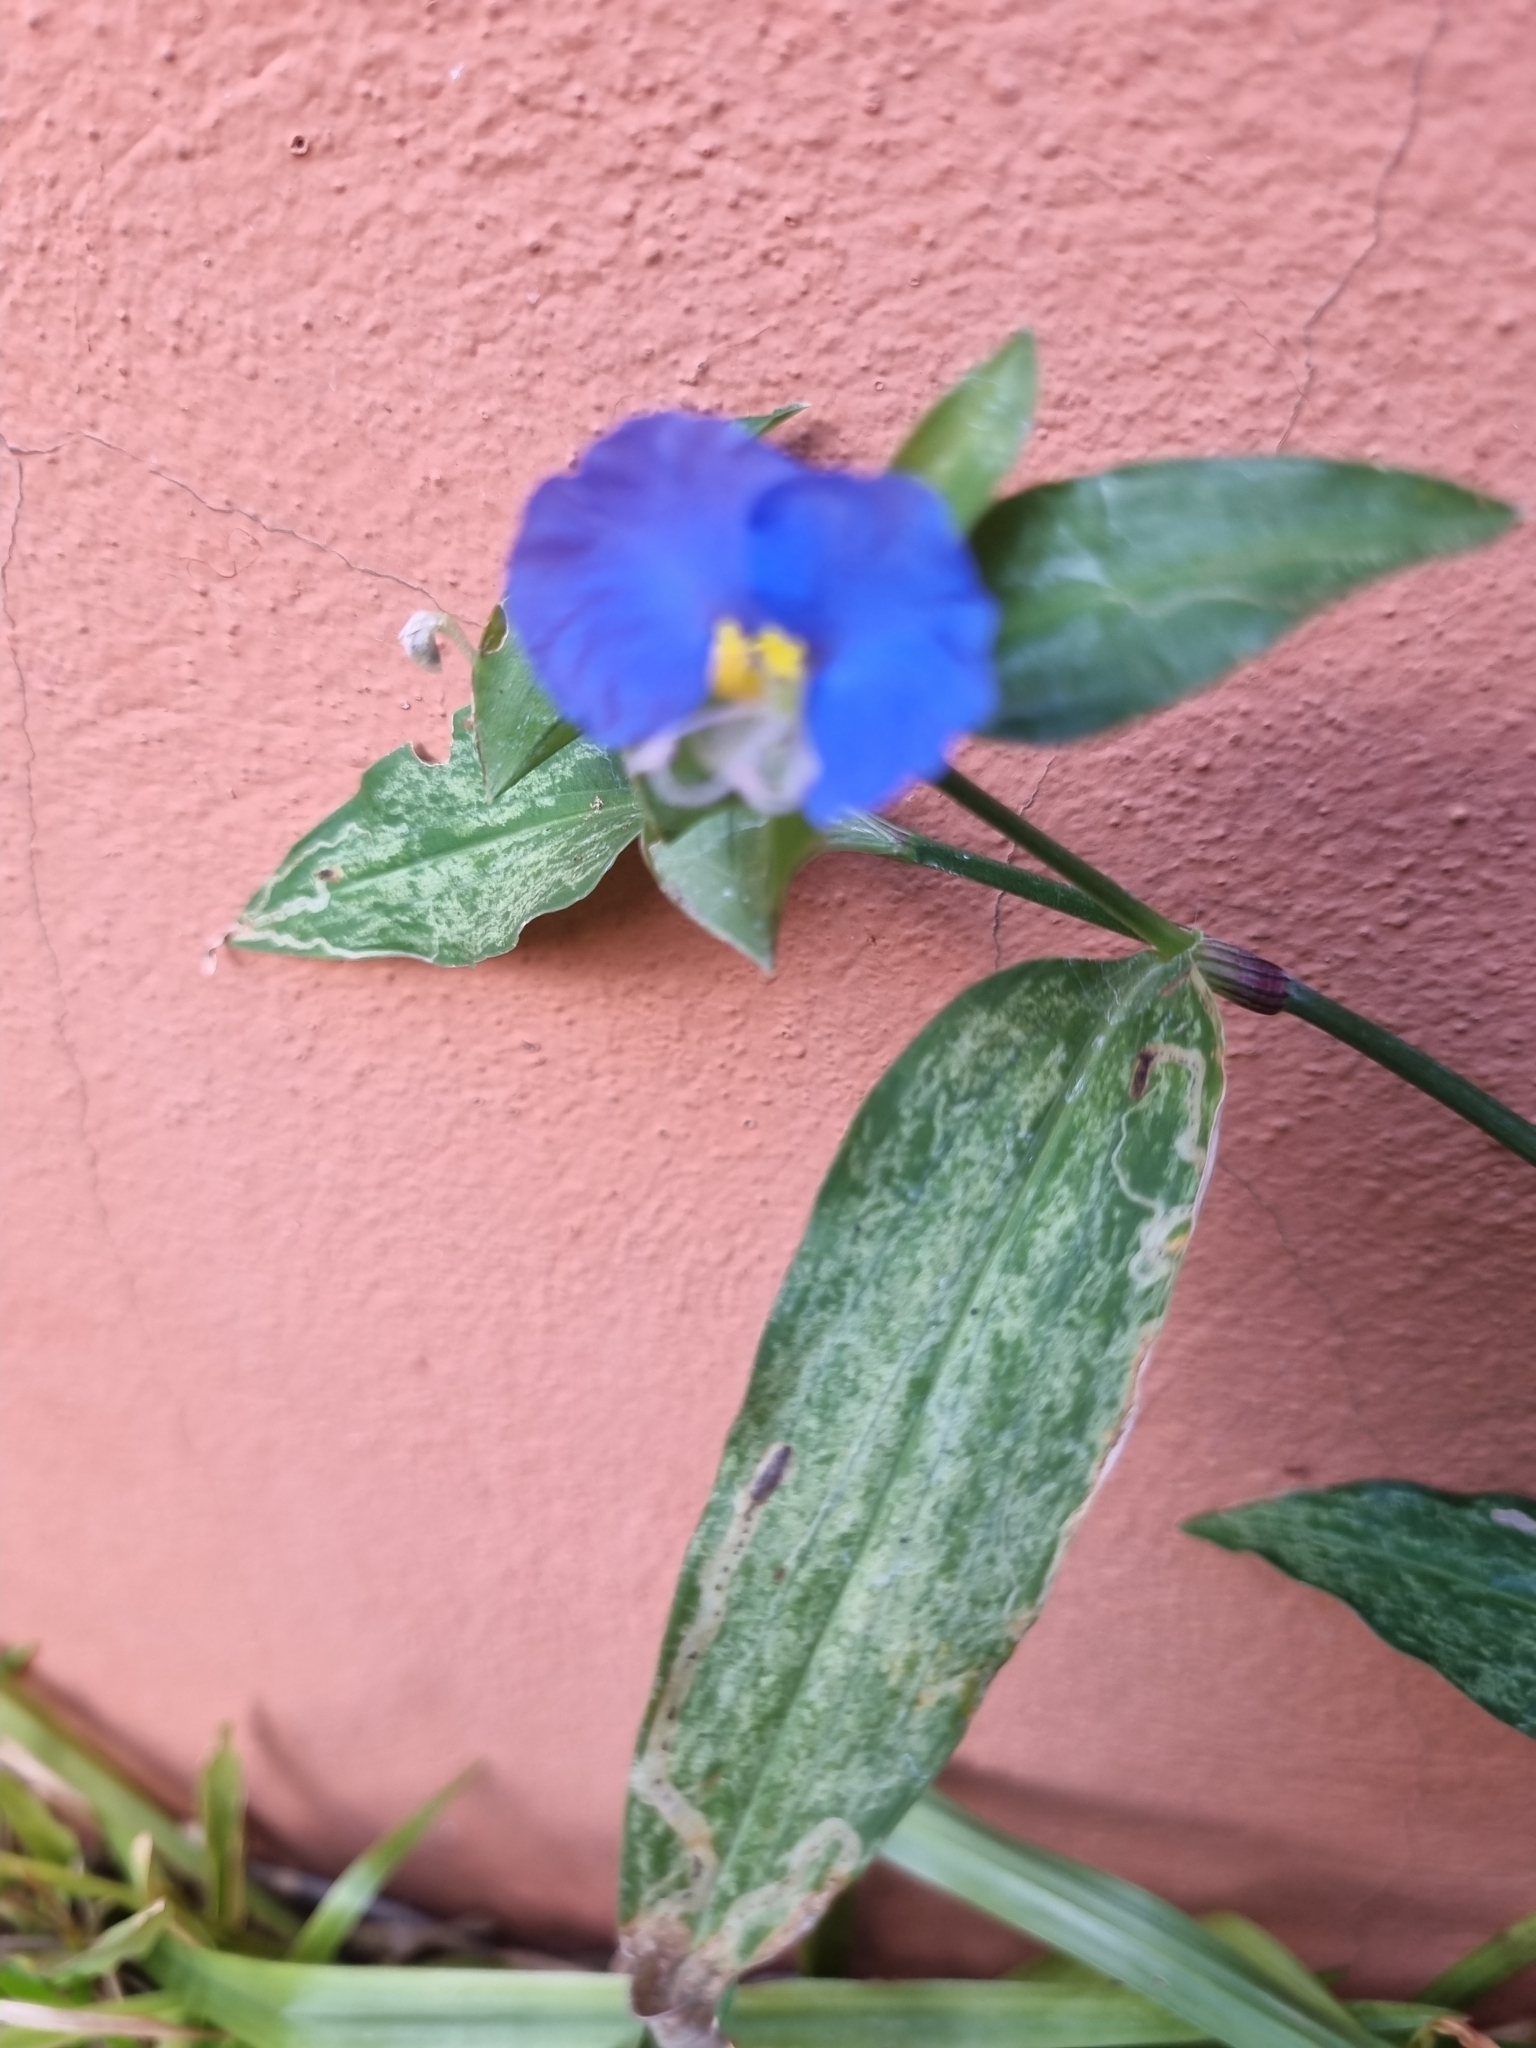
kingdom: Plantae
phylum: Tracheophyta
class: Liliopsida
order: Commelinales
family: Commelinaceae
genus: Commelina
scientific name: Commelina erecta
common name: Blousel blommetjie
